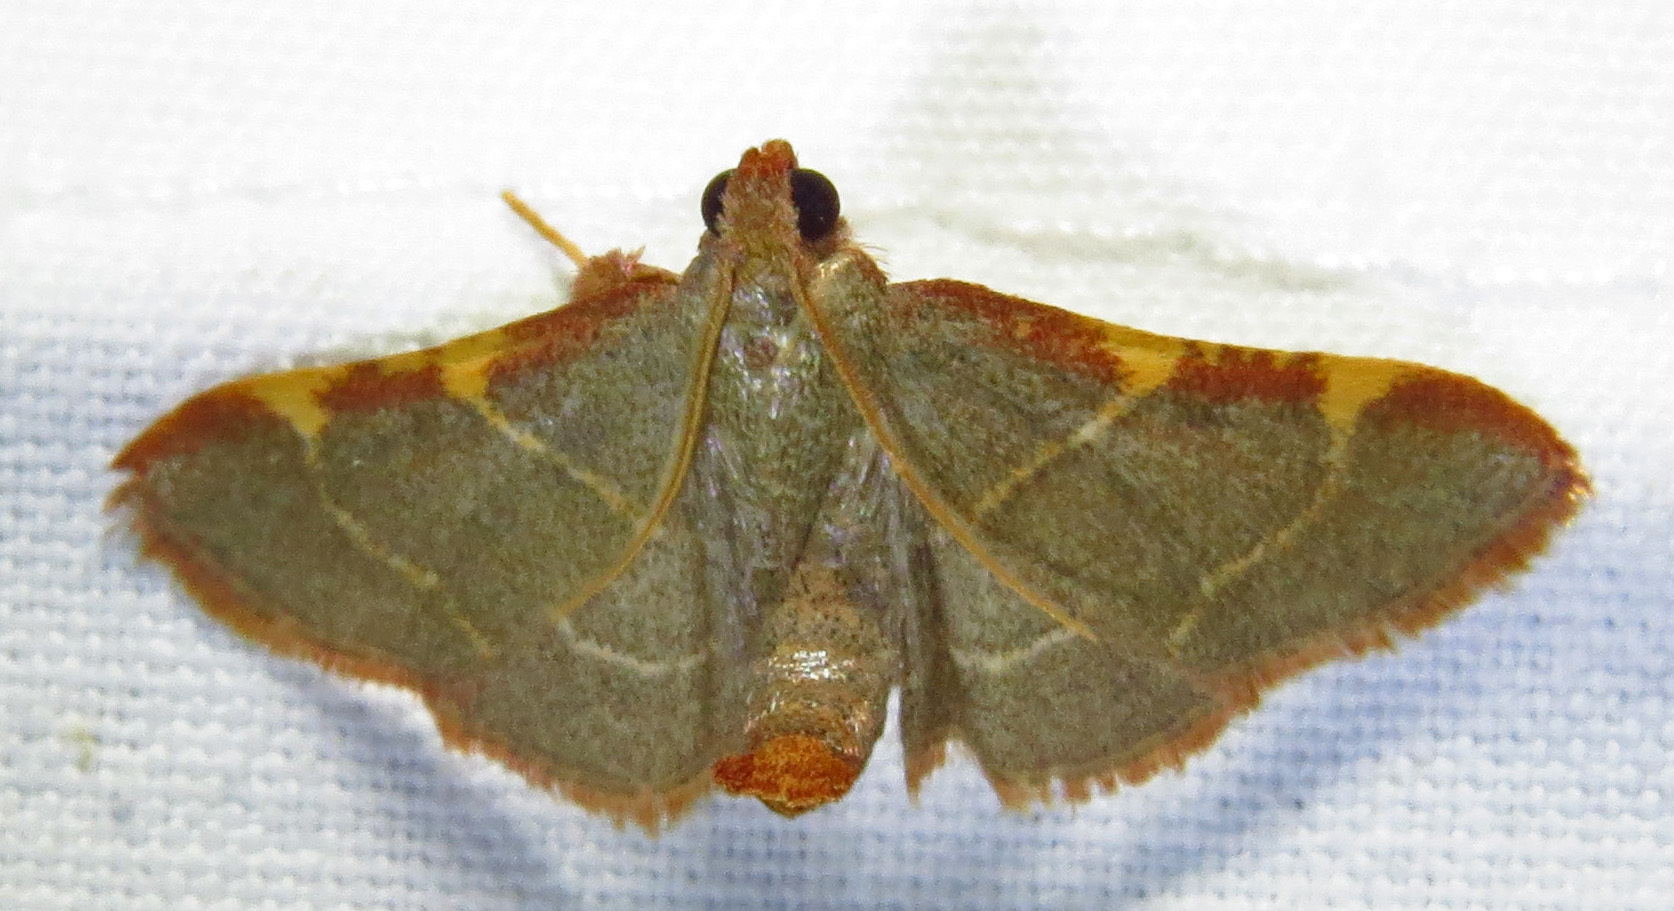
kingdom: Animalia
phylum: Arthropoda
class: Insecta
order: Lepidoptera
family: Pyralidae
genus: Hypsopygia
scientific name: Hypsopygia binodulalis
